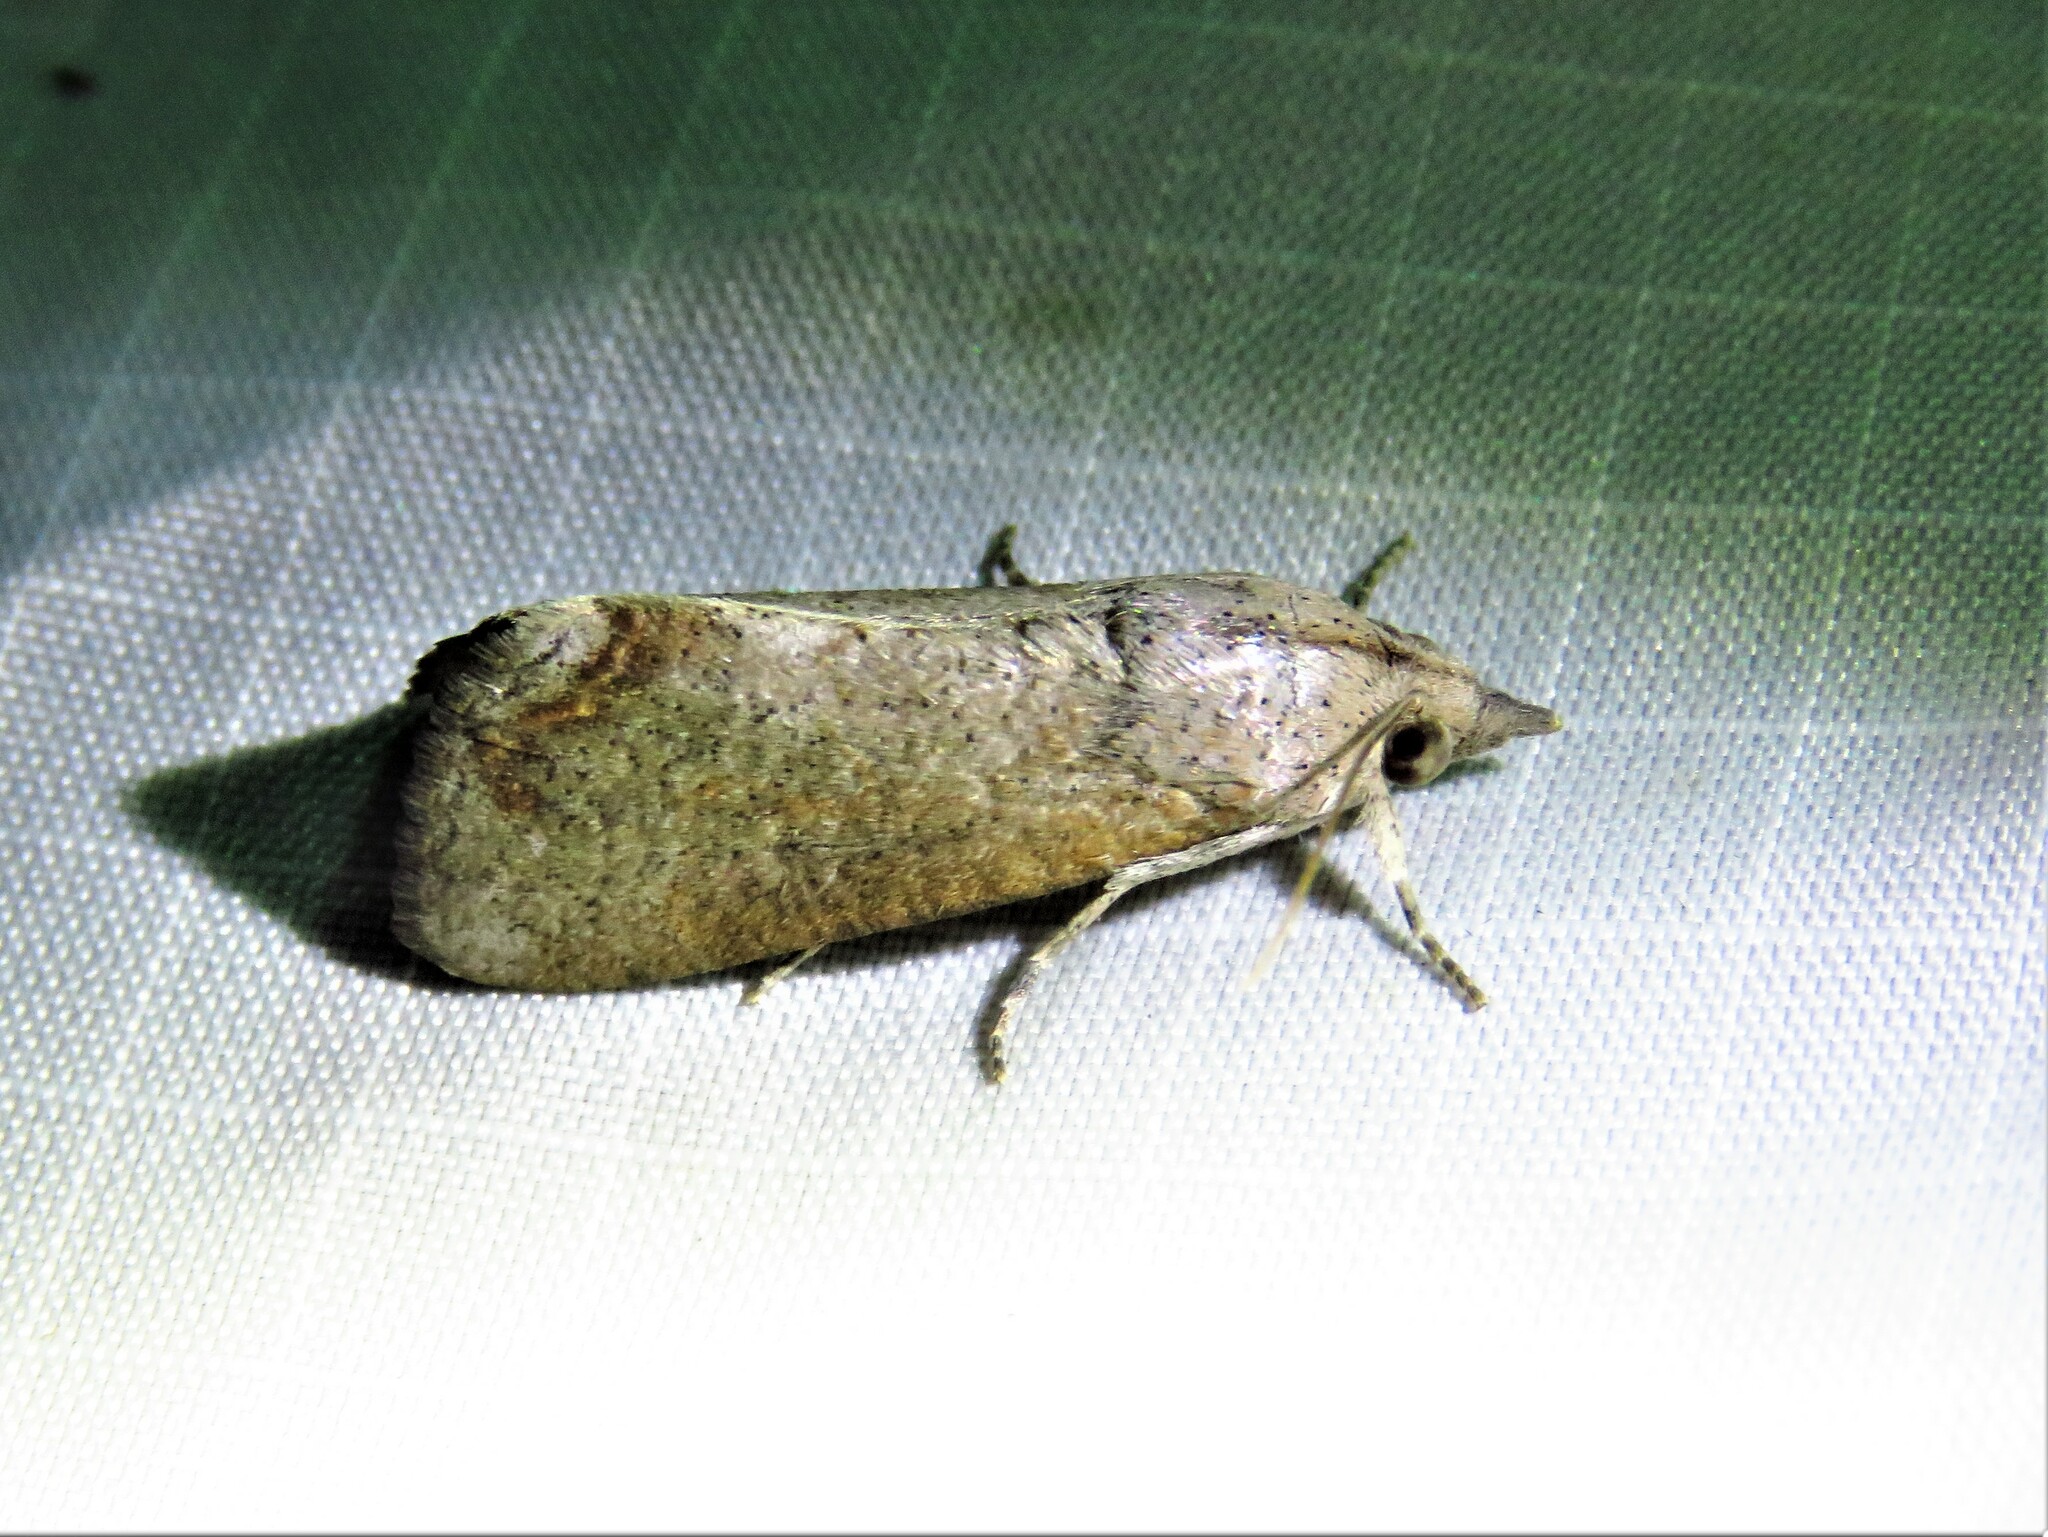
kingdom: Animalia
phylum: Arthropoda
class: Insecta
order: Lepidoptera
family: Erebidae
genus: Hypocala
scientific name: Hypocala andremona
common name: Hypocala moth
